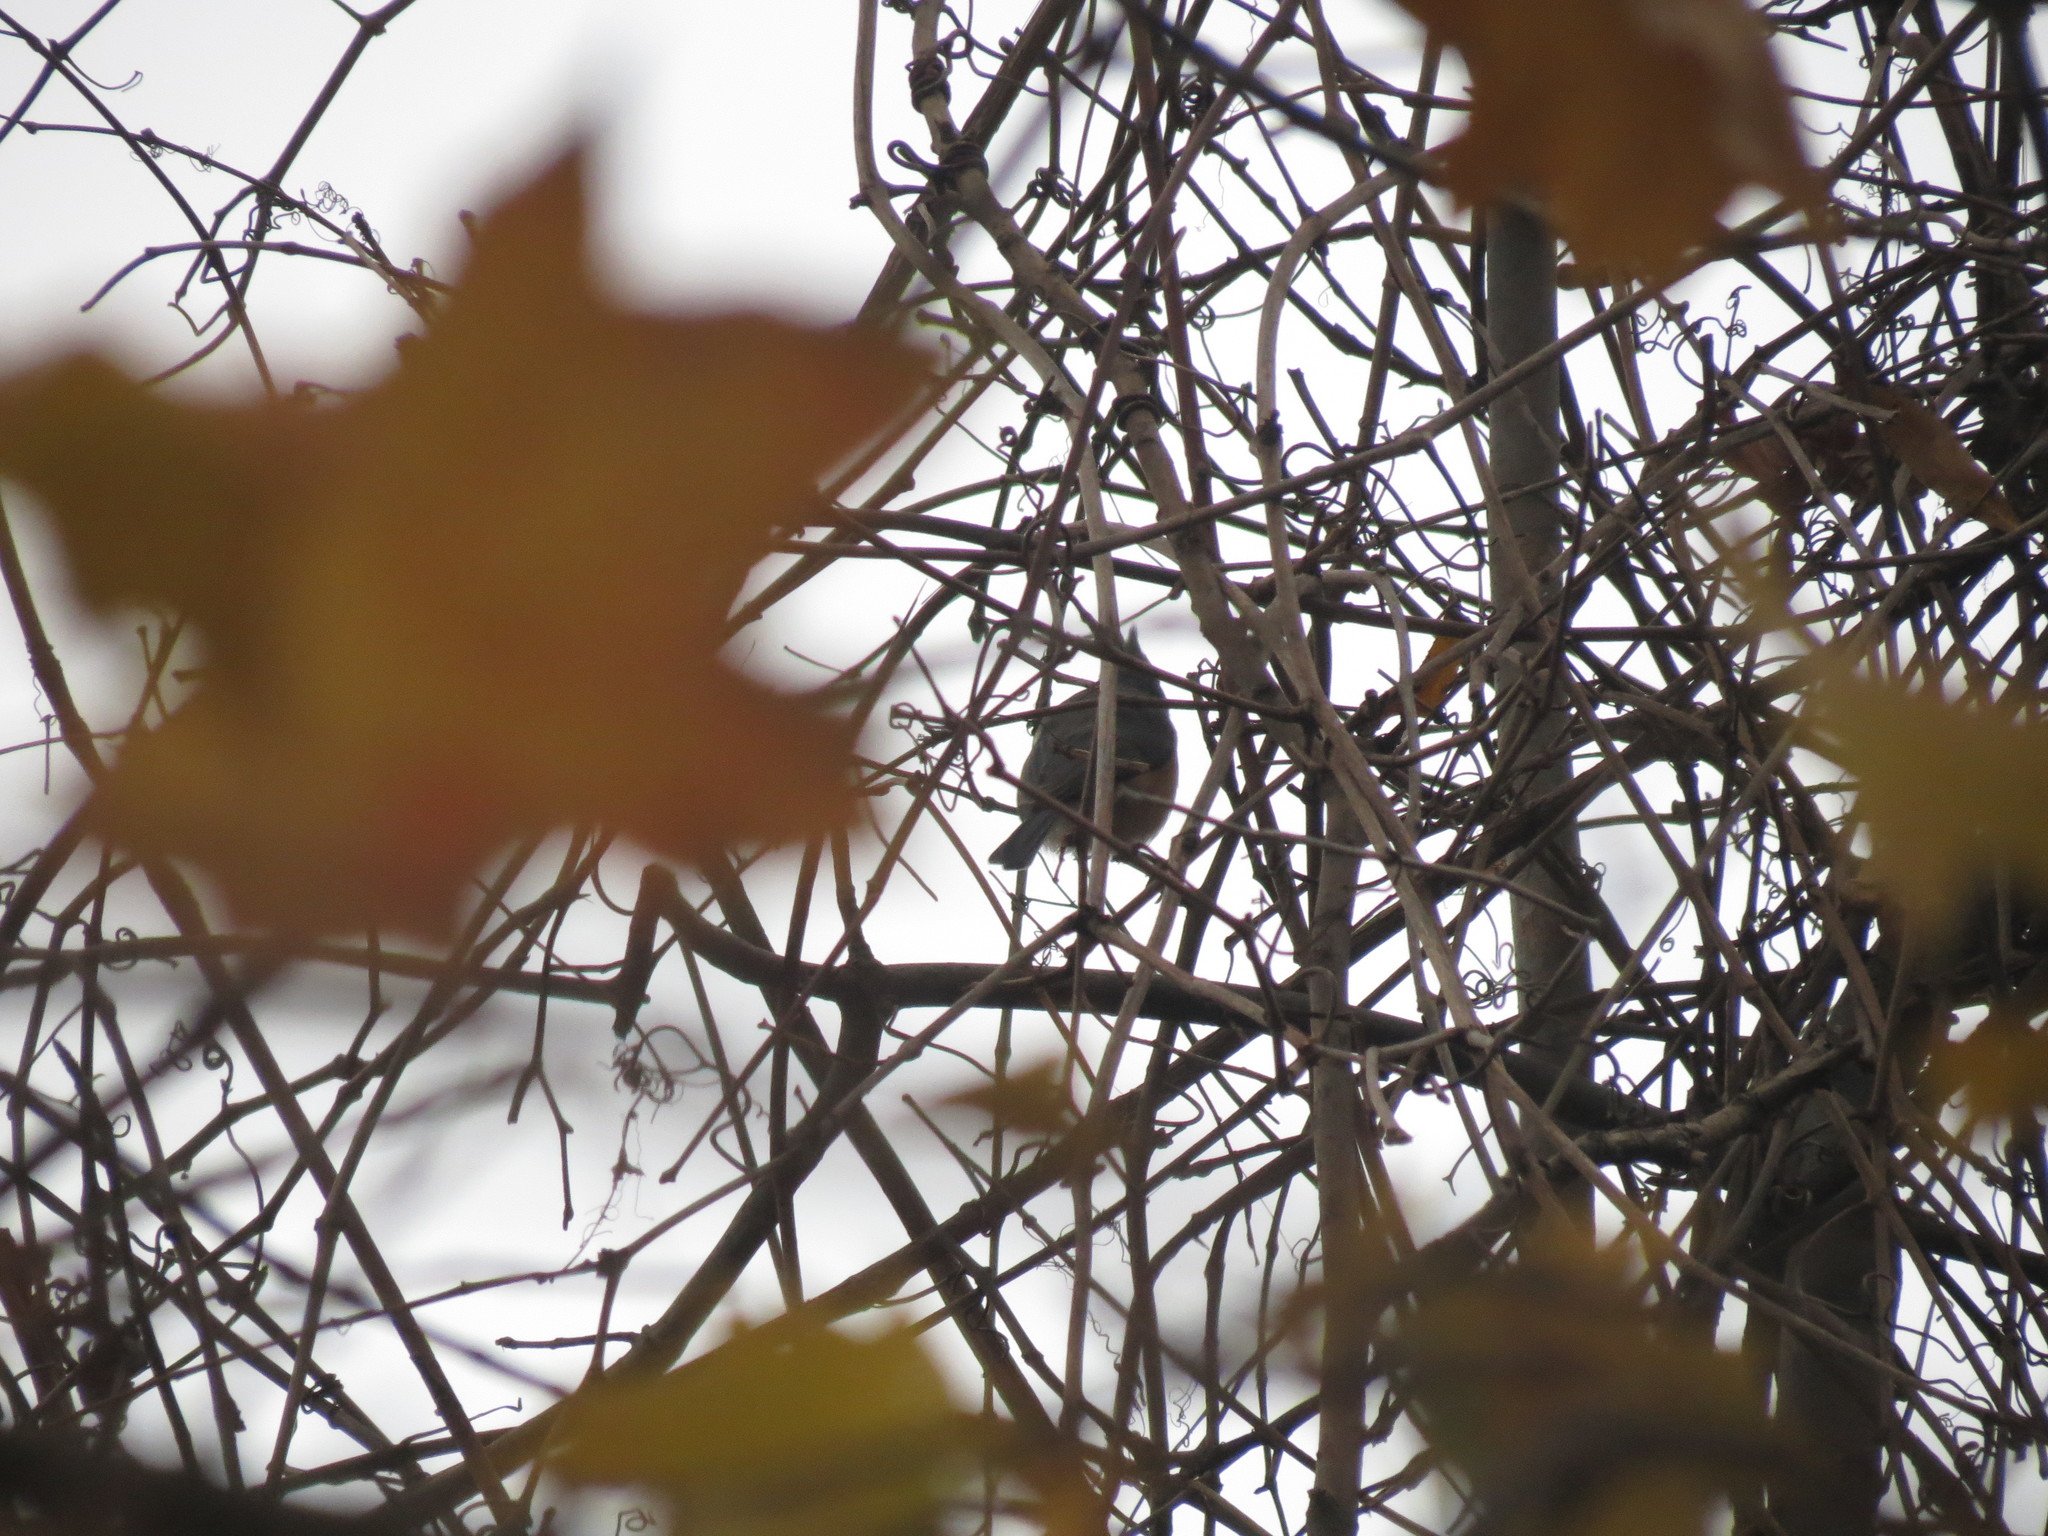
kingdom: Animalia
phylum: Chordata
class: Aves
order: Passeriformes
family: Paridae
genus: Baeolophus
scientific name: Baeolophus bicolor
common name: Tufted titmouse
